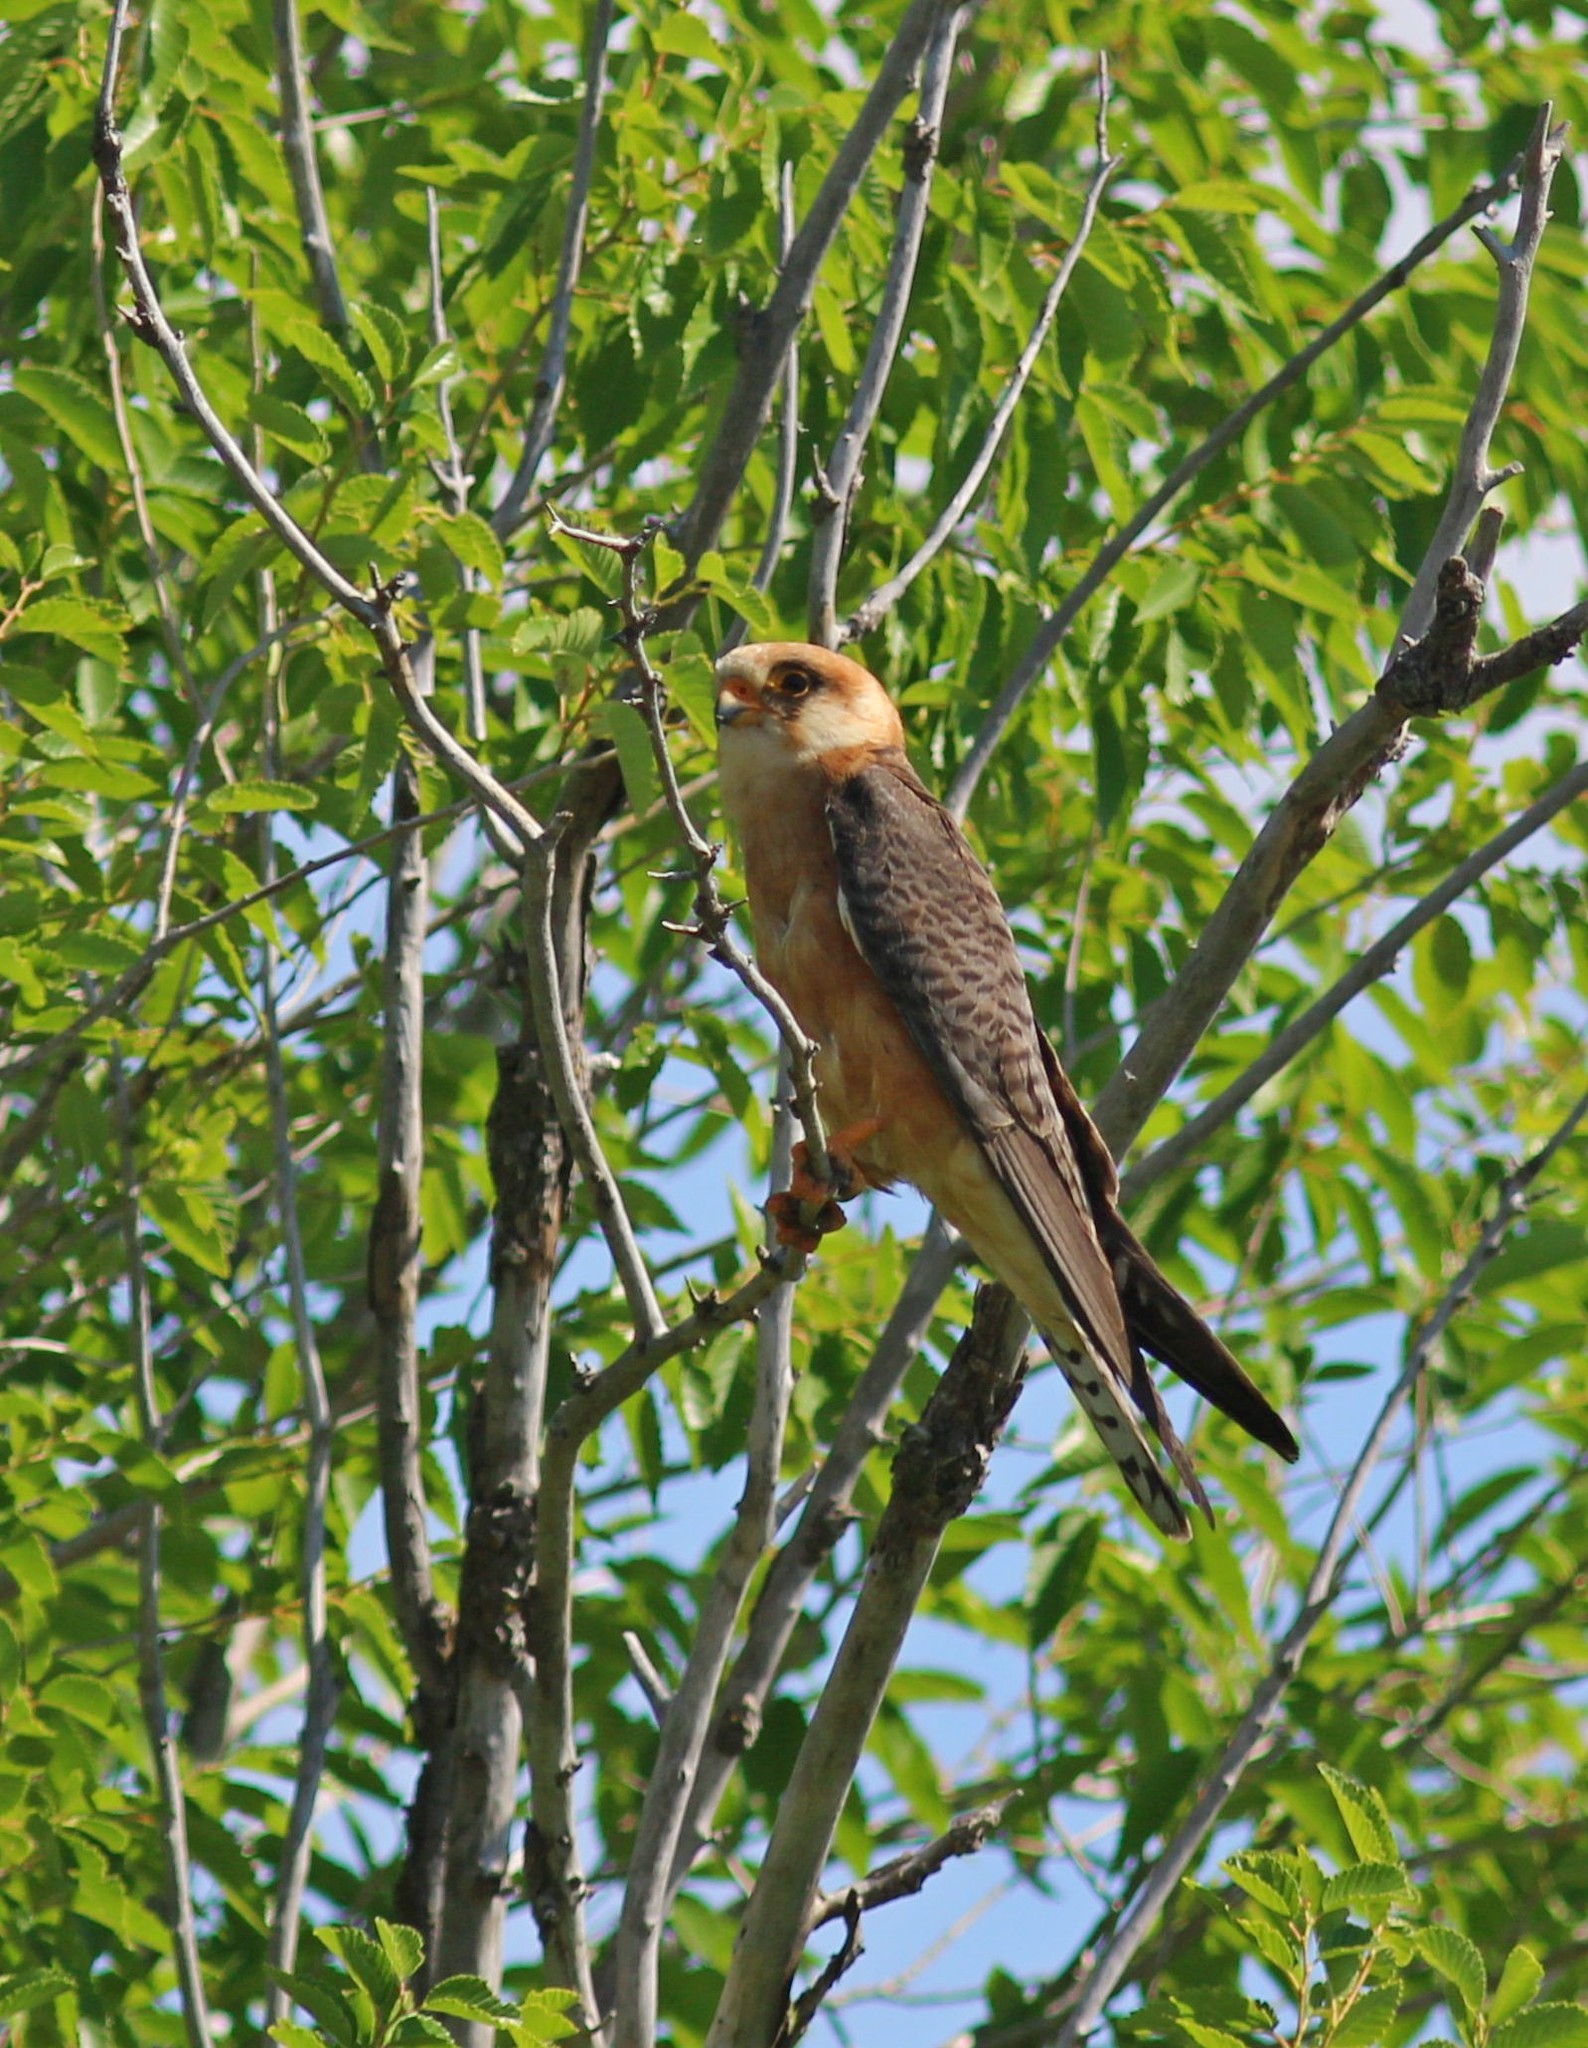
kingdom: Animalia
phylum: Chordata
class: Aves
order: Falconiformes
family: Falconidae
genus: Falco
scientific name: Falco vespertinus
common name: Red-footed falcon
